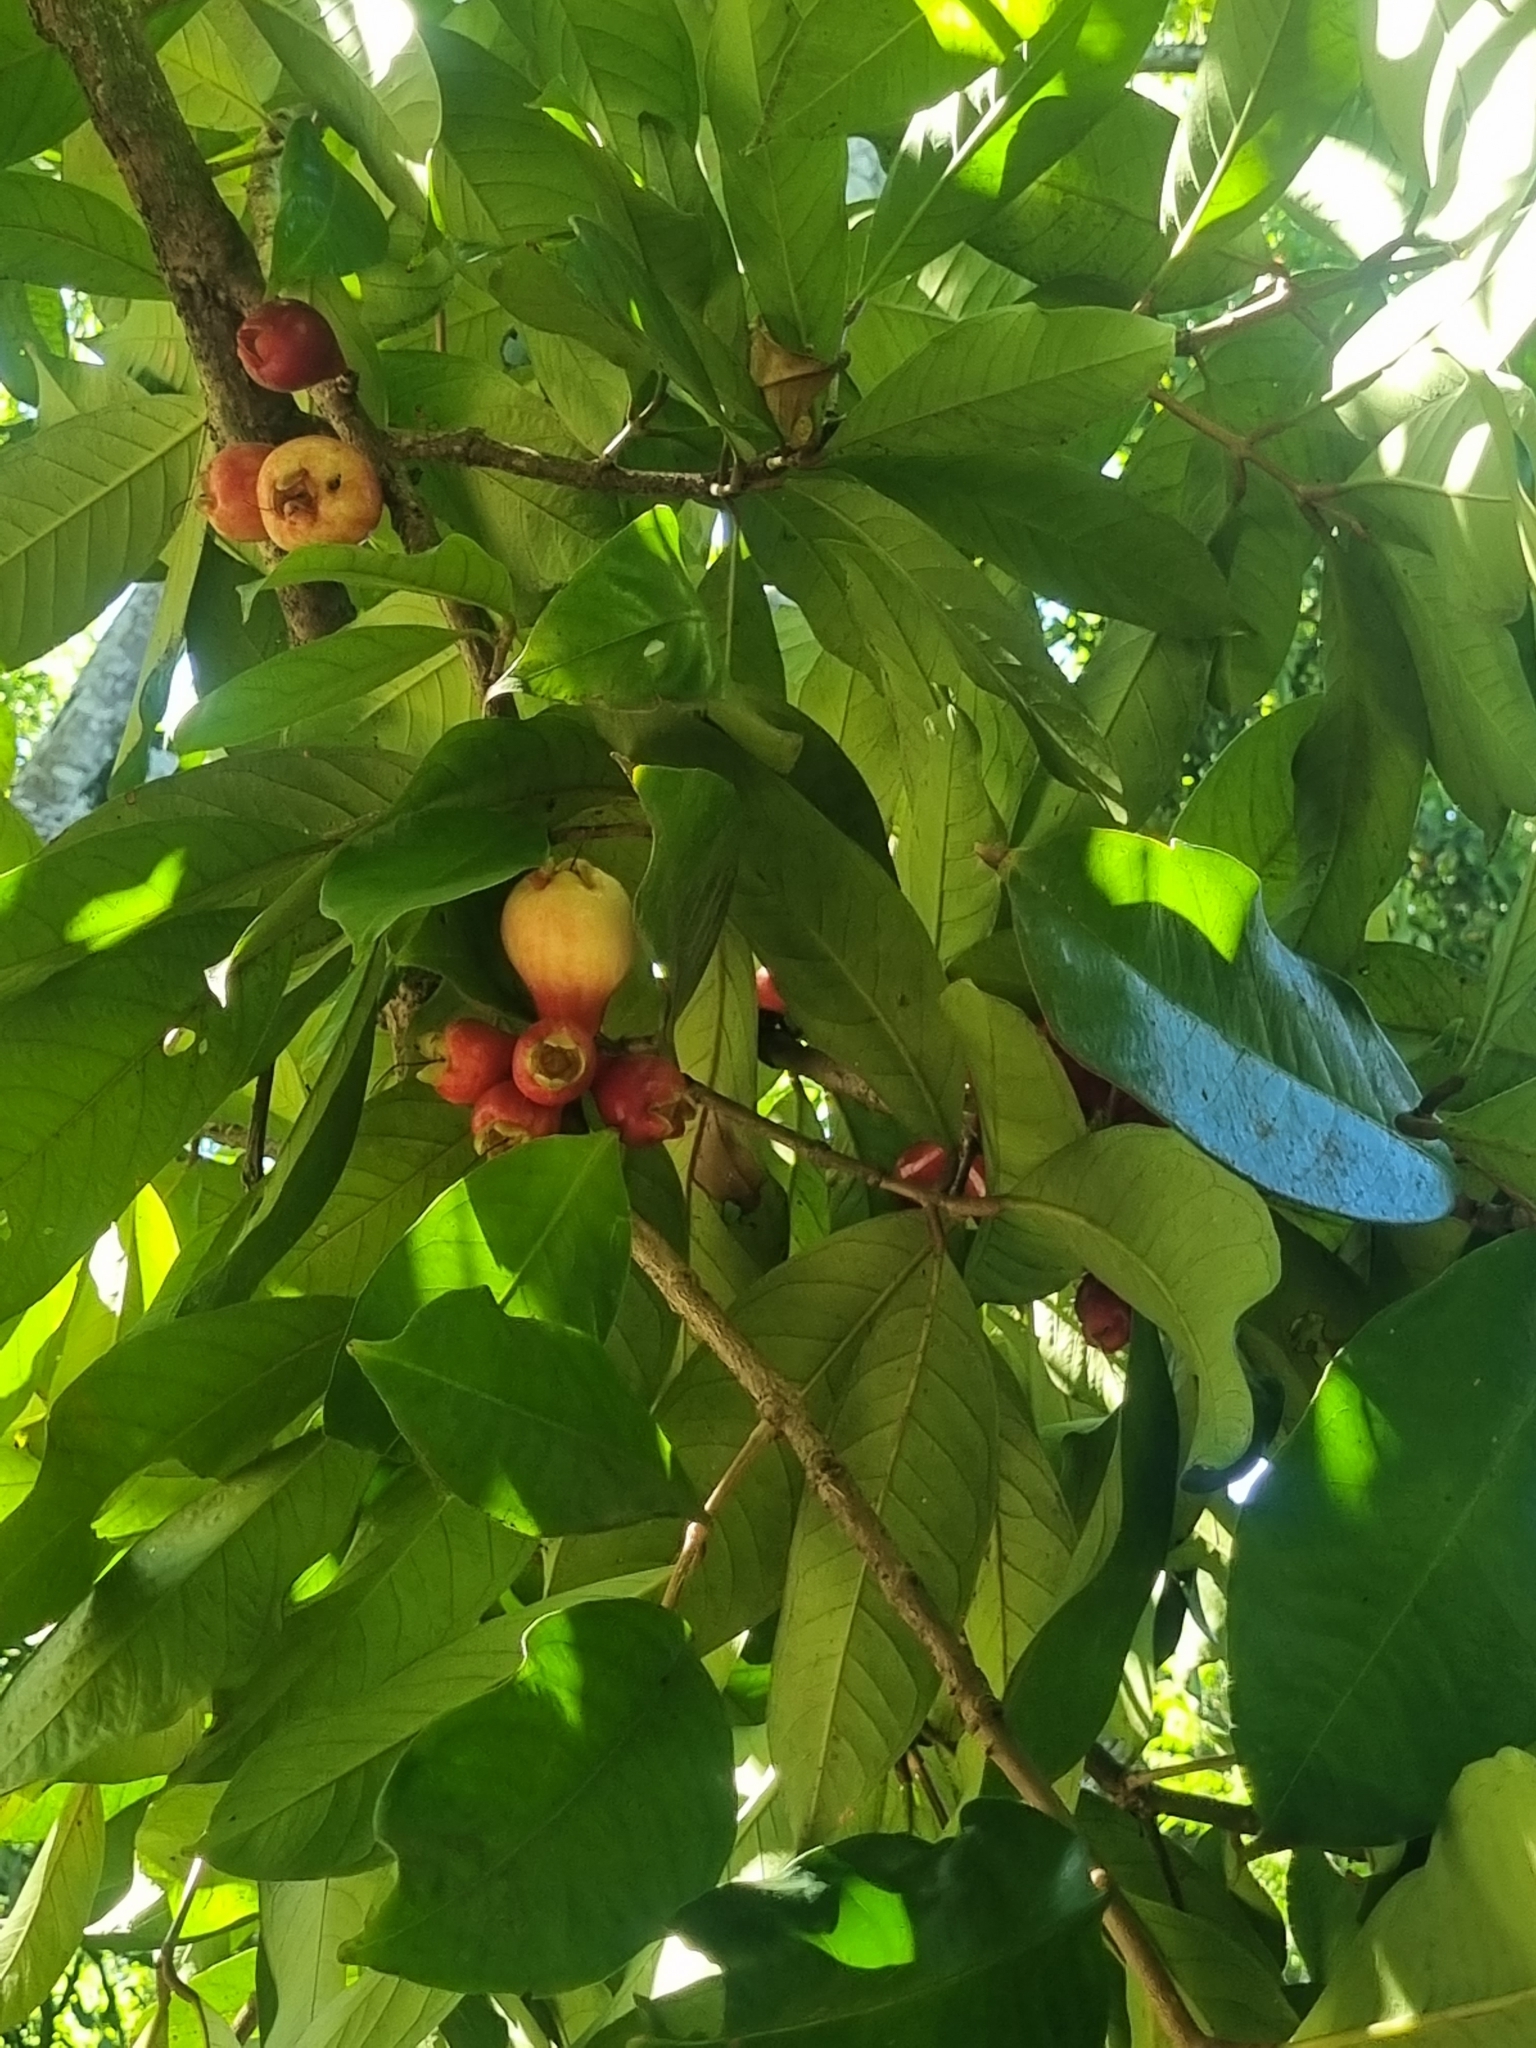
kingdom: Plantae
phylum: Tracheophyta
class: Magnoliopsida
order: Myrtales
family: Myrtaceae
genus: Syzygium
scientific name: Syzygium samarangense
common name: Semarang rose-apple
